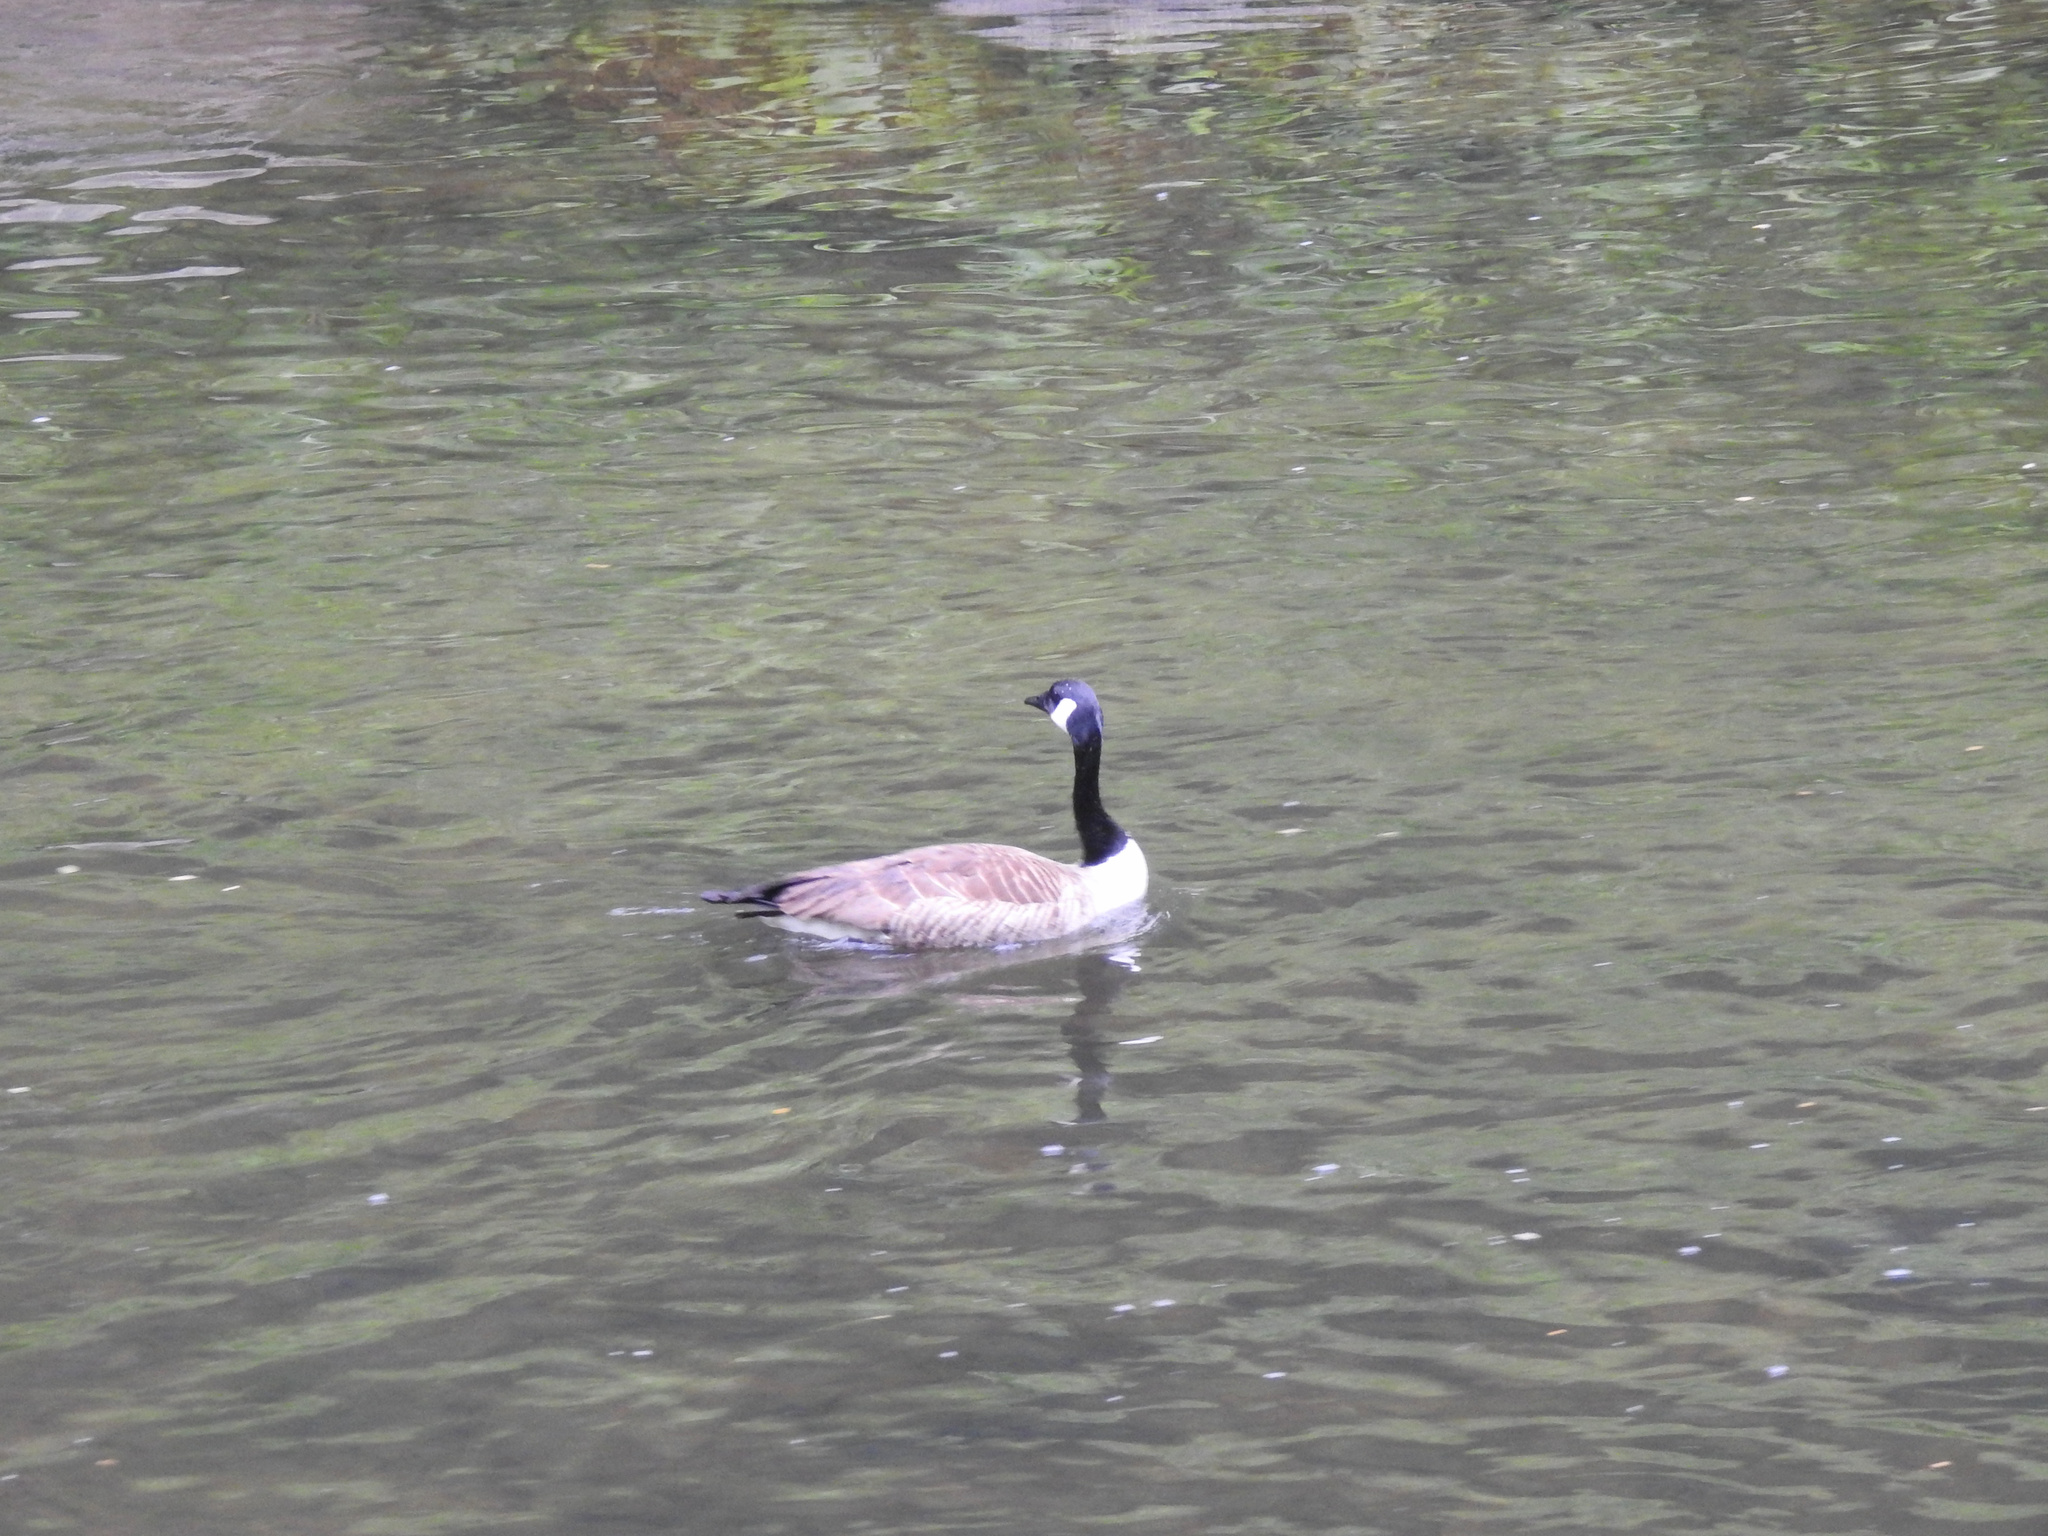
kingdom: Animalia
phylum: Chordata
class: Aves
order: Anseriformes
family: Anatidae
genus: Branta
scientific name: Branta canadensis
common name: Canada goose
